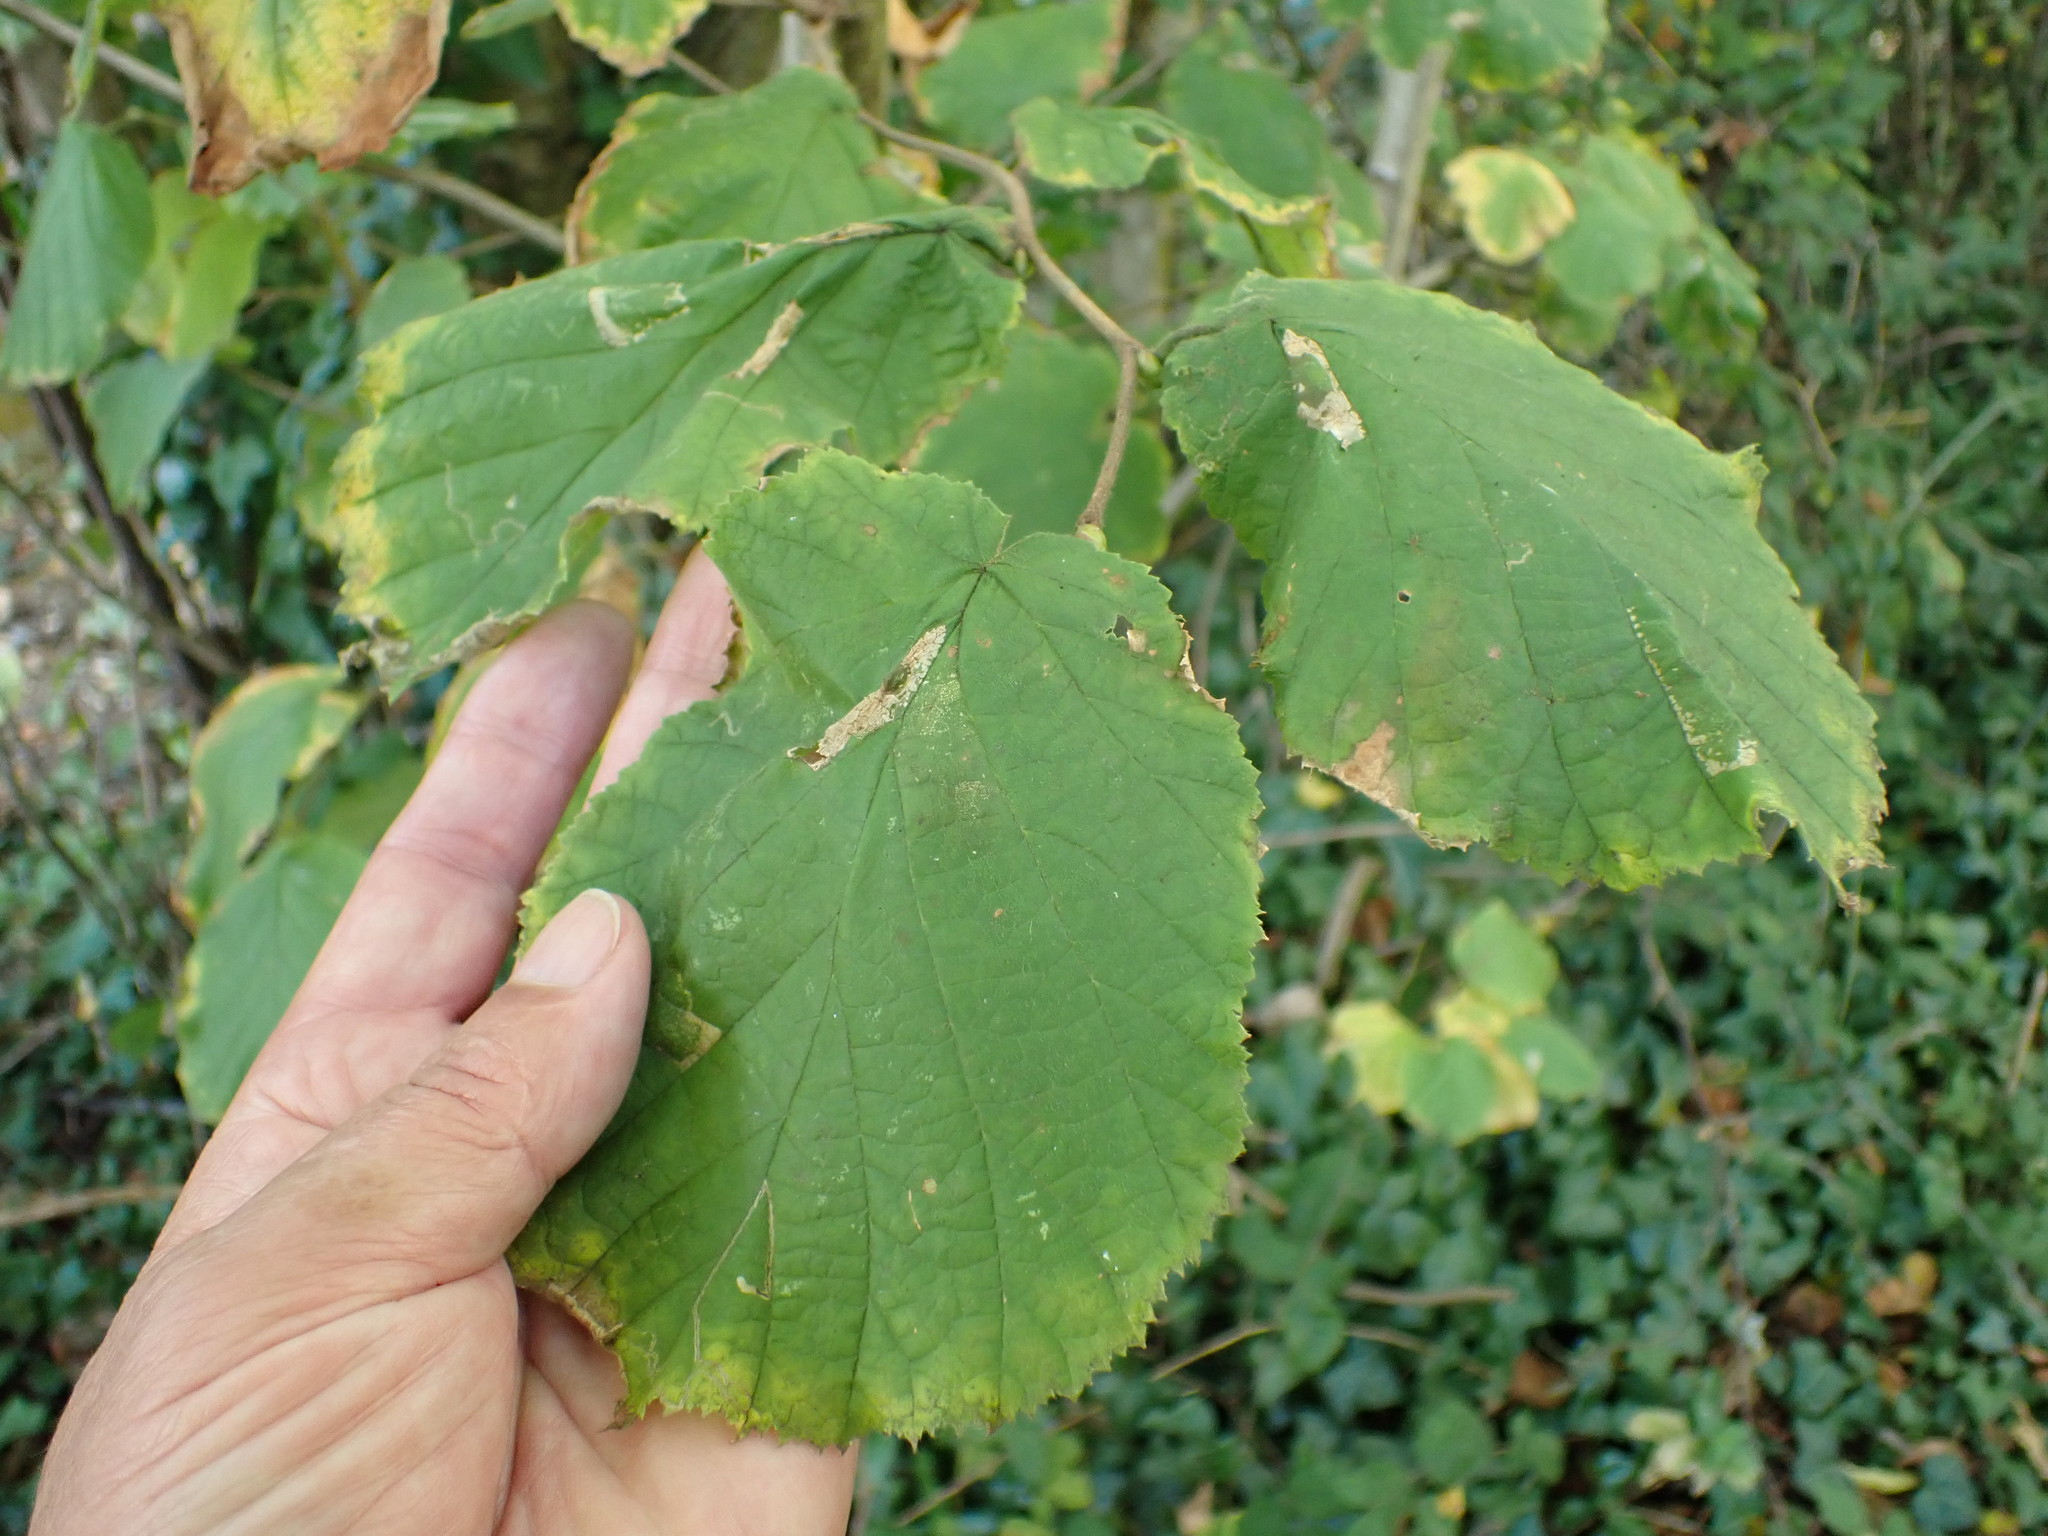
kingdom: Plantae
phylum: Tracheophyta
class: Magnoliopsida
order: Fagales
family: Betulaceae
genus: Corylus
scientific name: Corylus avellana
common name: European hazel
